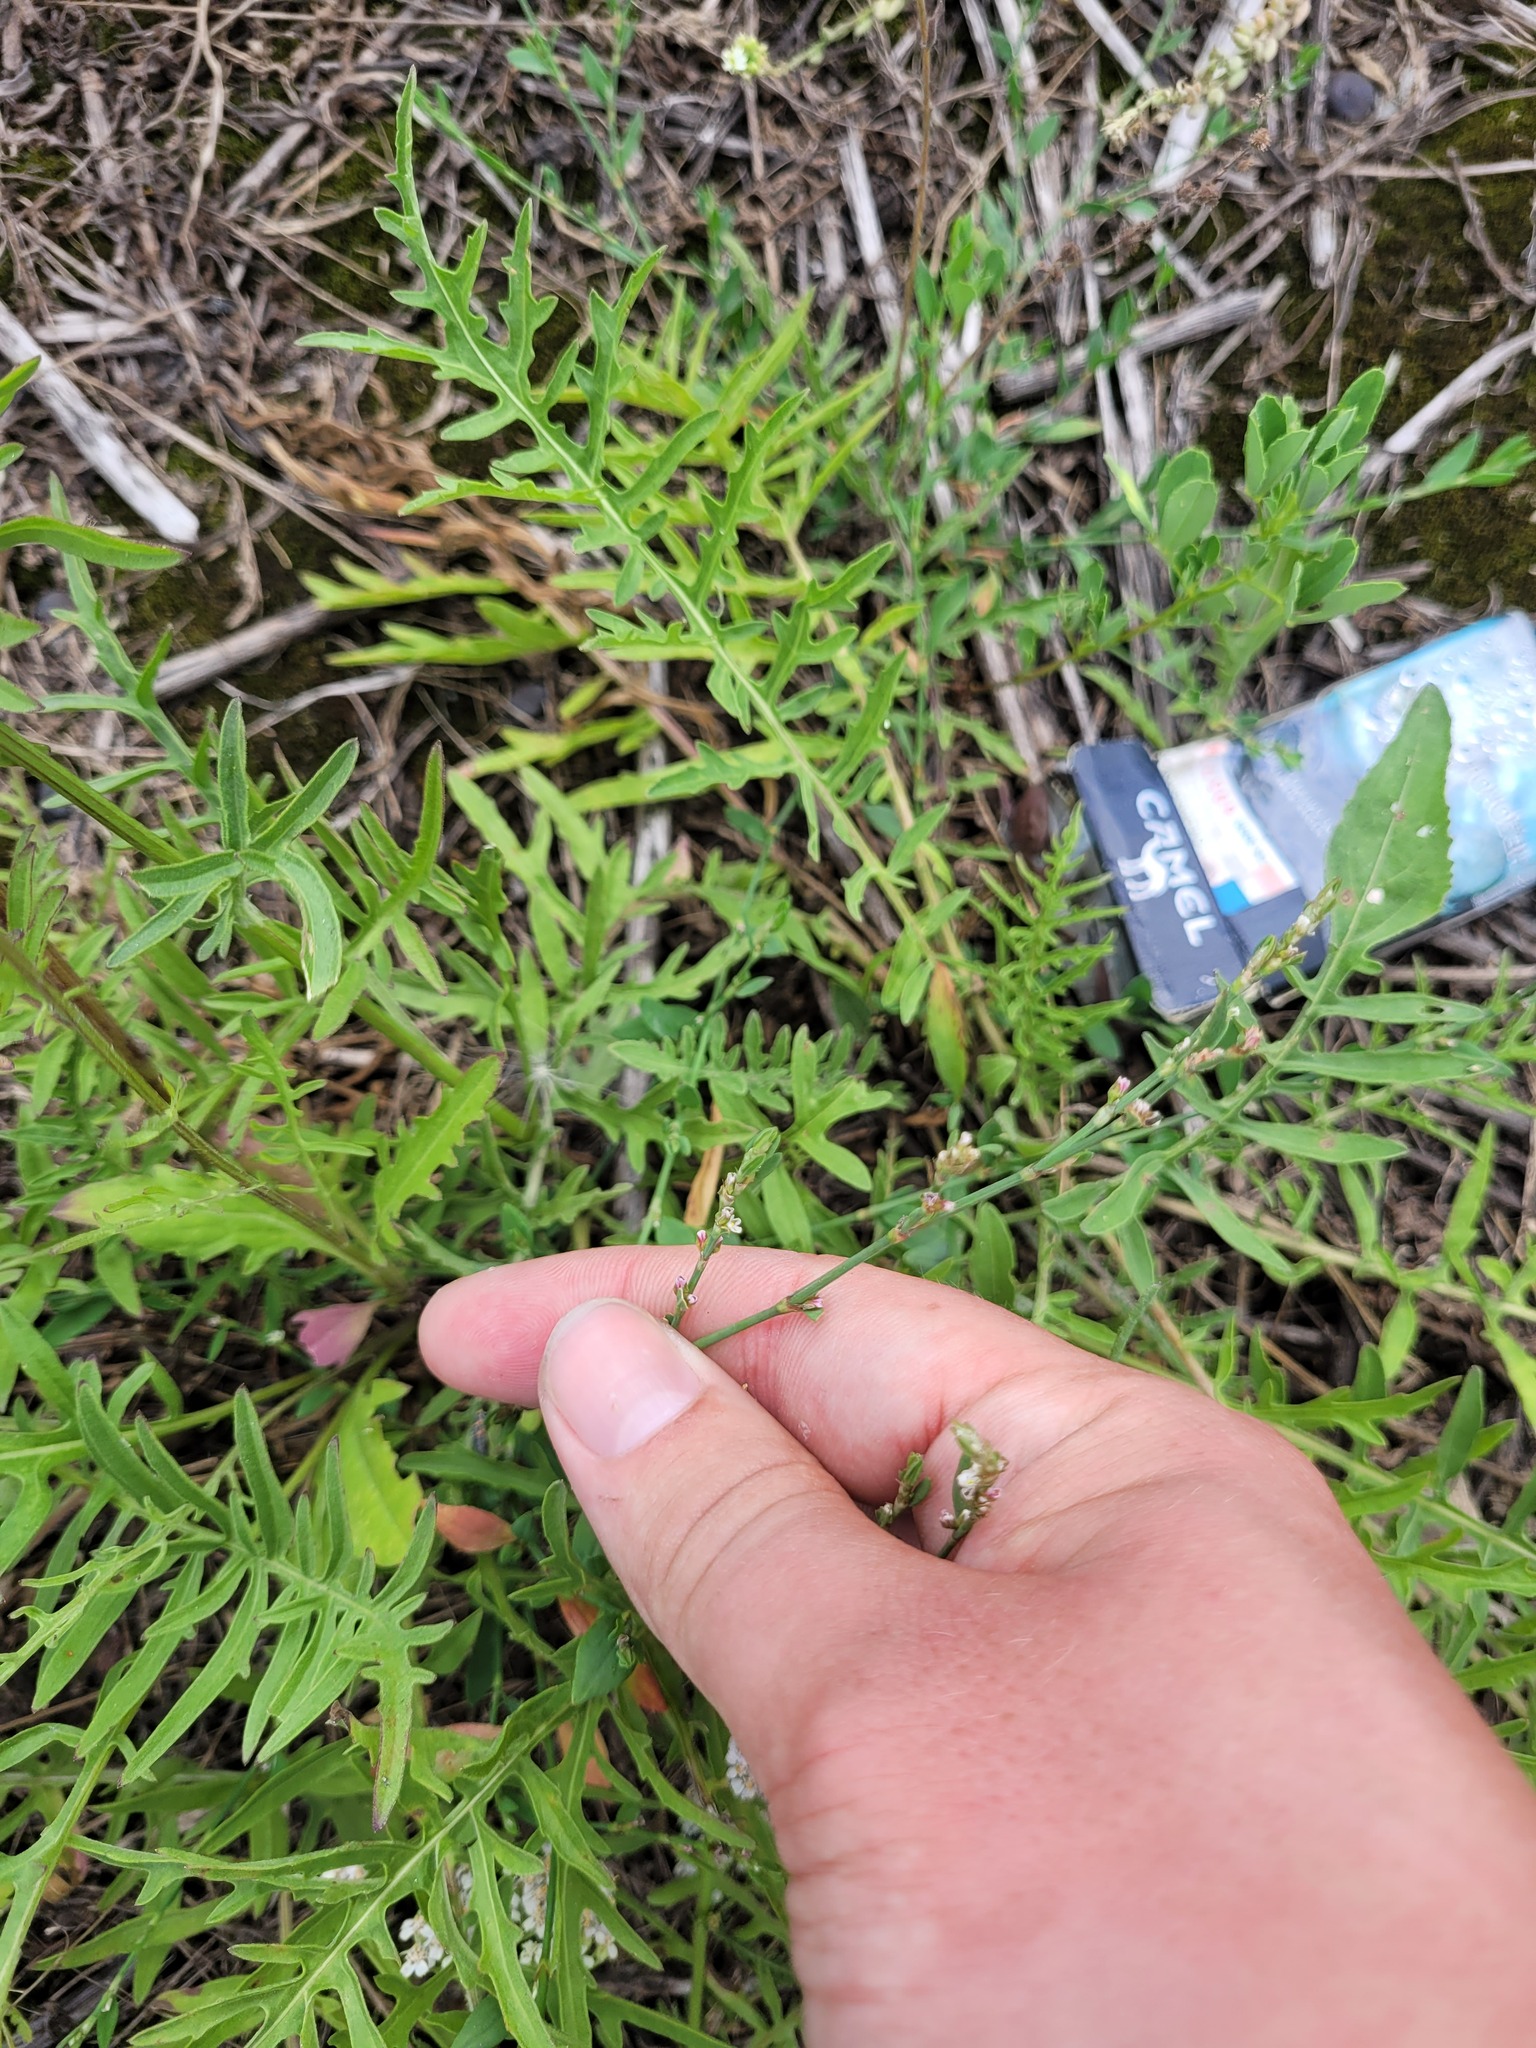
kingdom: Plantae
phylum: Tracheophyta
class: Magnoliopsida
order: Caryophyllales
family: Polygonaceae
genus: Polygonum
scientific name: Polygonum
